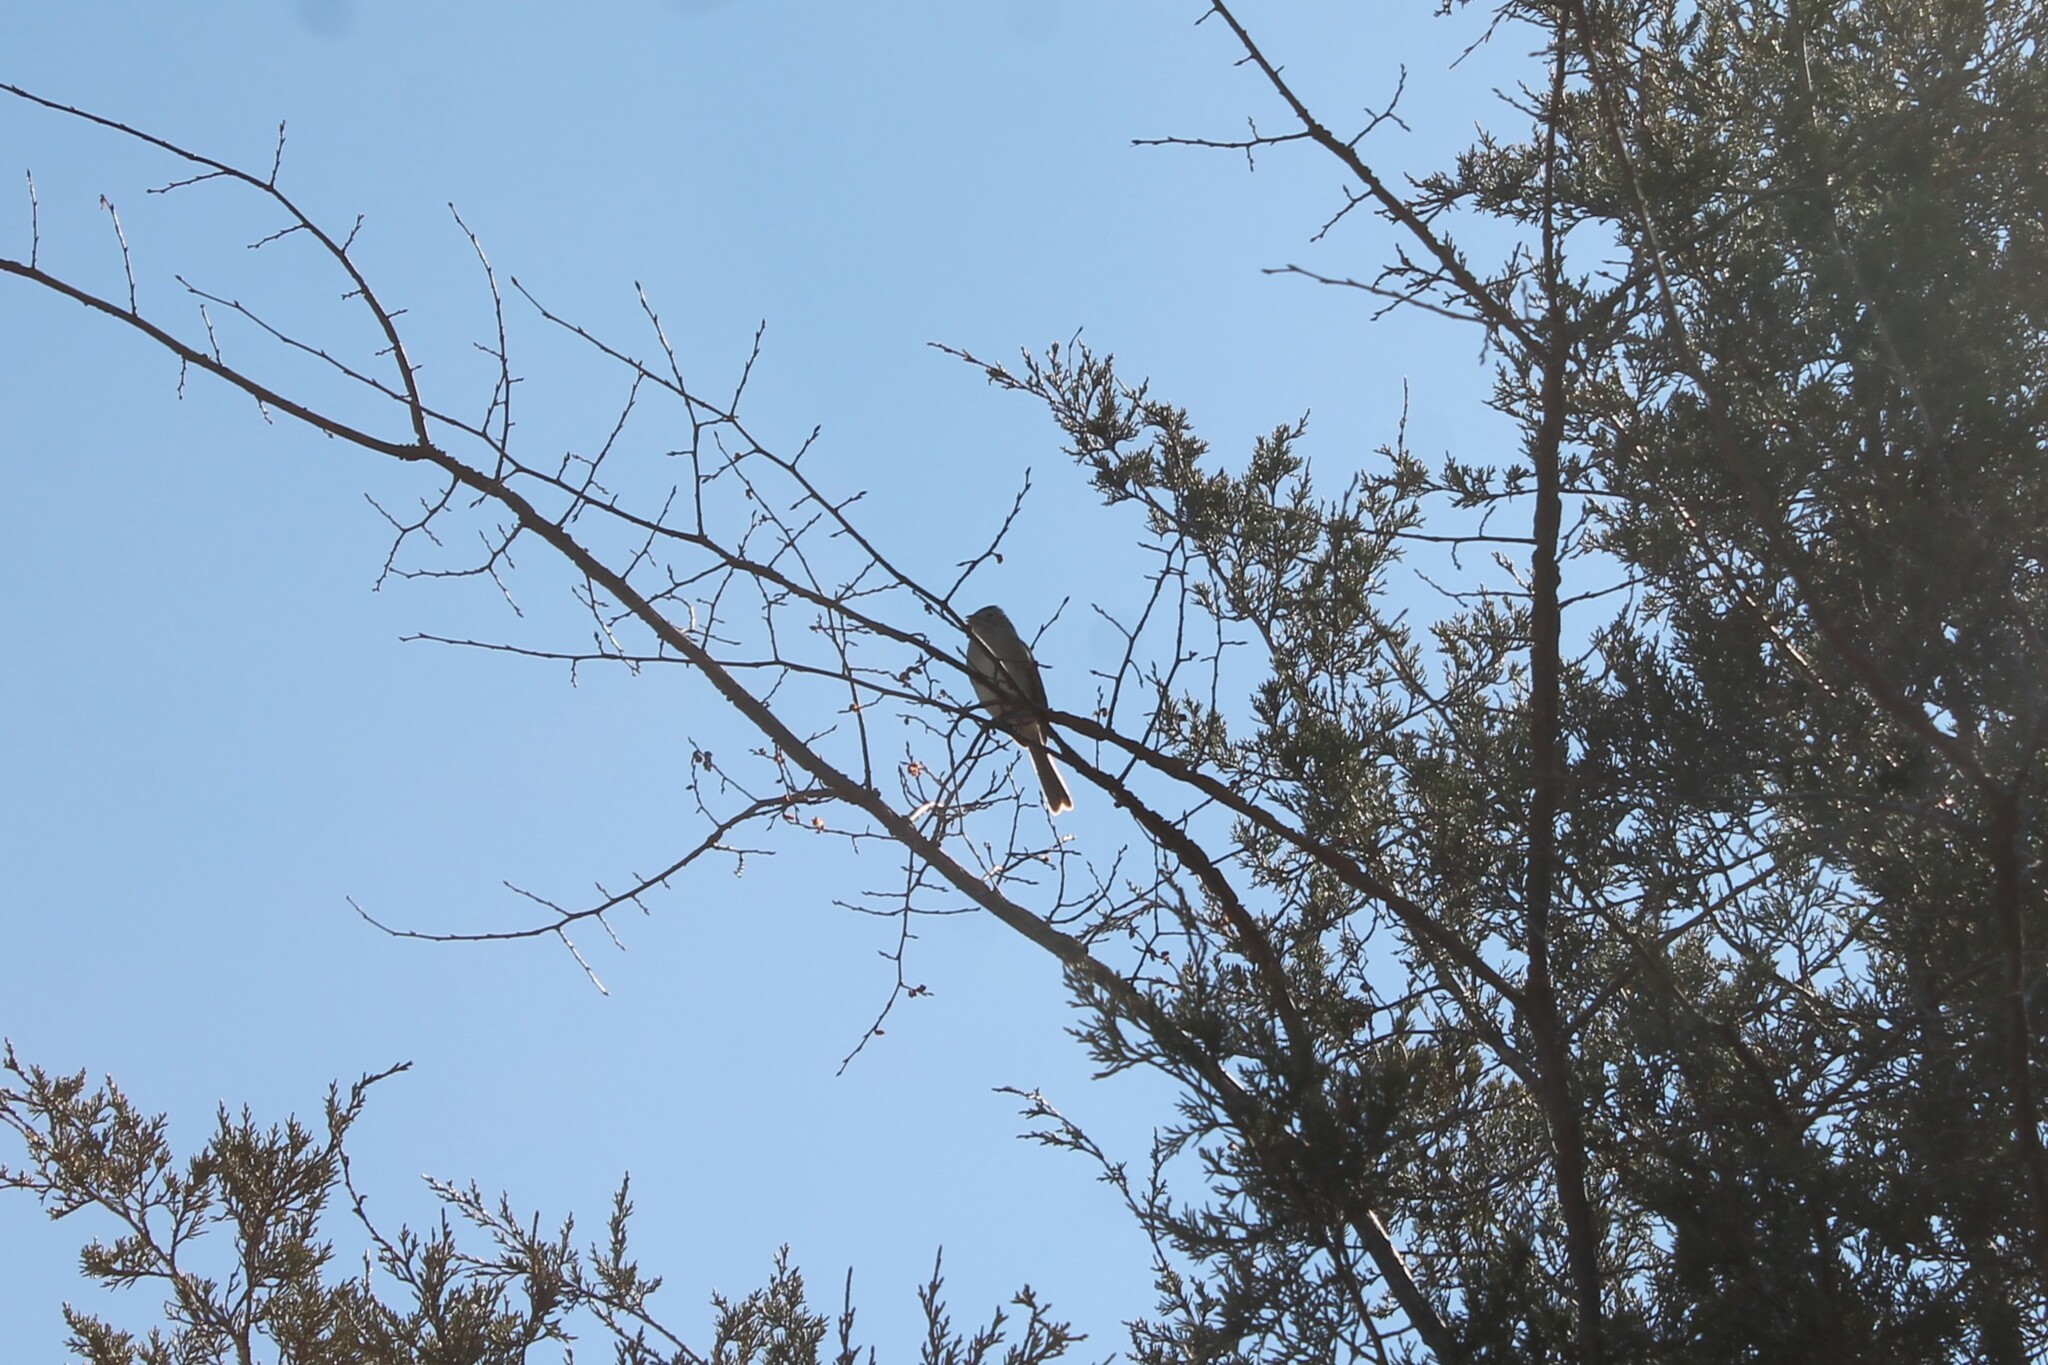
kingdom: Animalia
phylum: Chordata
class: Aves
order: Passeriformes
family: Passerellidae
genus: Spizella
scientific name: Spizella pusilla
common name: Field sparrow
